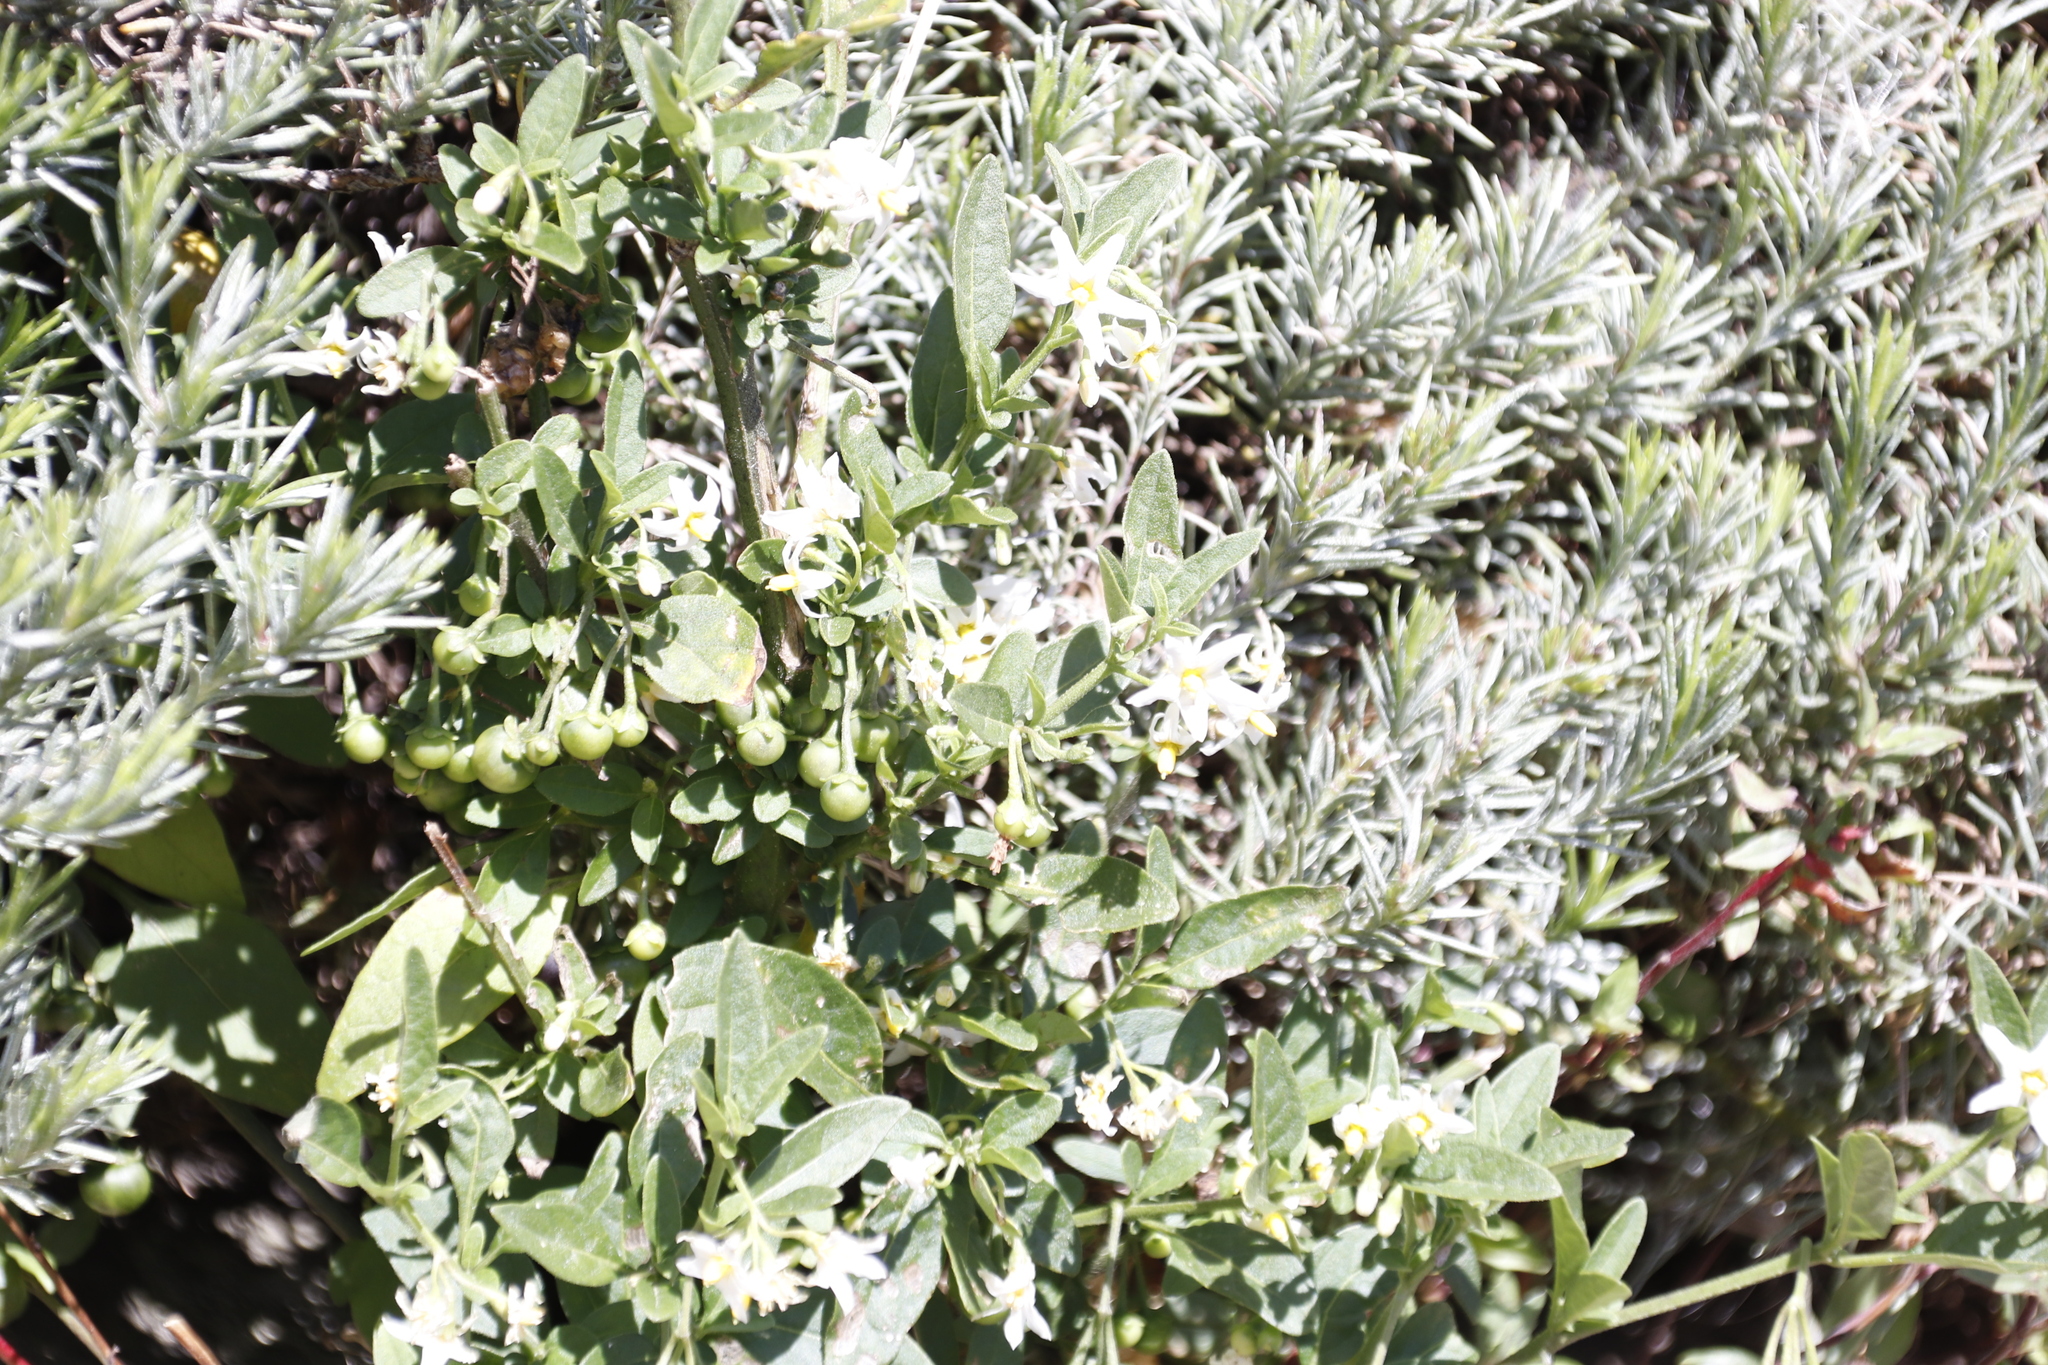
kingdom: Plantae
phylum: Tracheophyta
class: Magnoliopsida
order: Solanales
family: Solanaceae
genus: Solanum
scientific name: Solanum chenopodioides
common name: Tall nightshade
